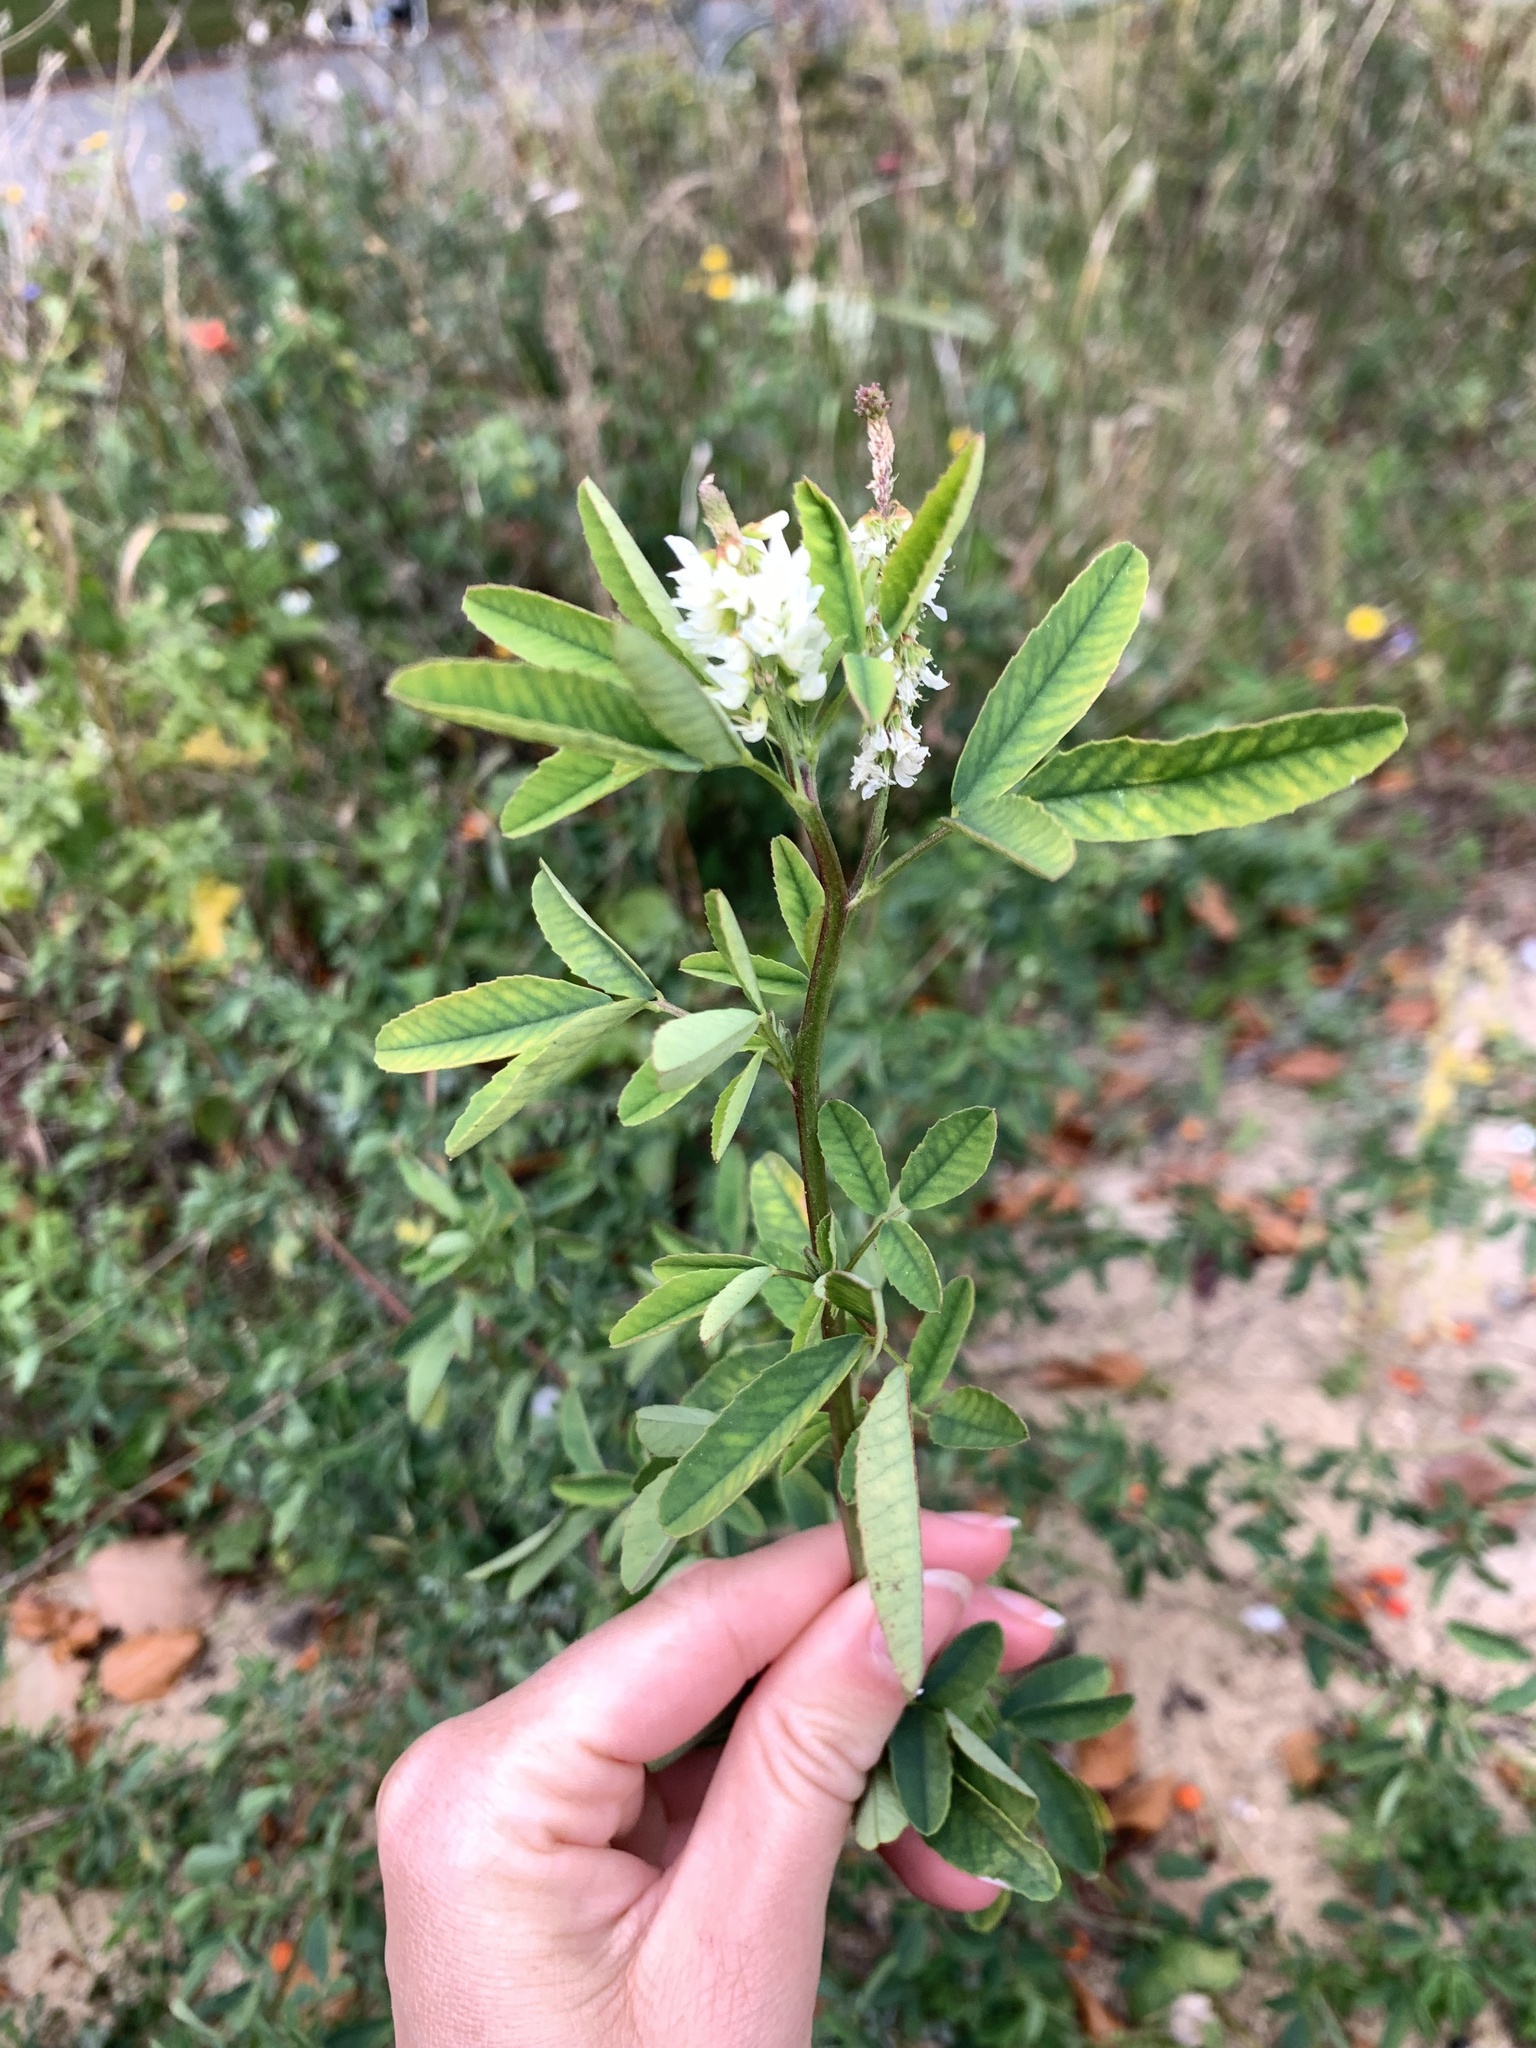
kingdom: Plantae
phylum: Tracheophyta
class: Magnoliopsida
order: Fabales
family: Fabaceae
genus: Melilotus
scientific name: Melilotus albus
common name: White melilot
